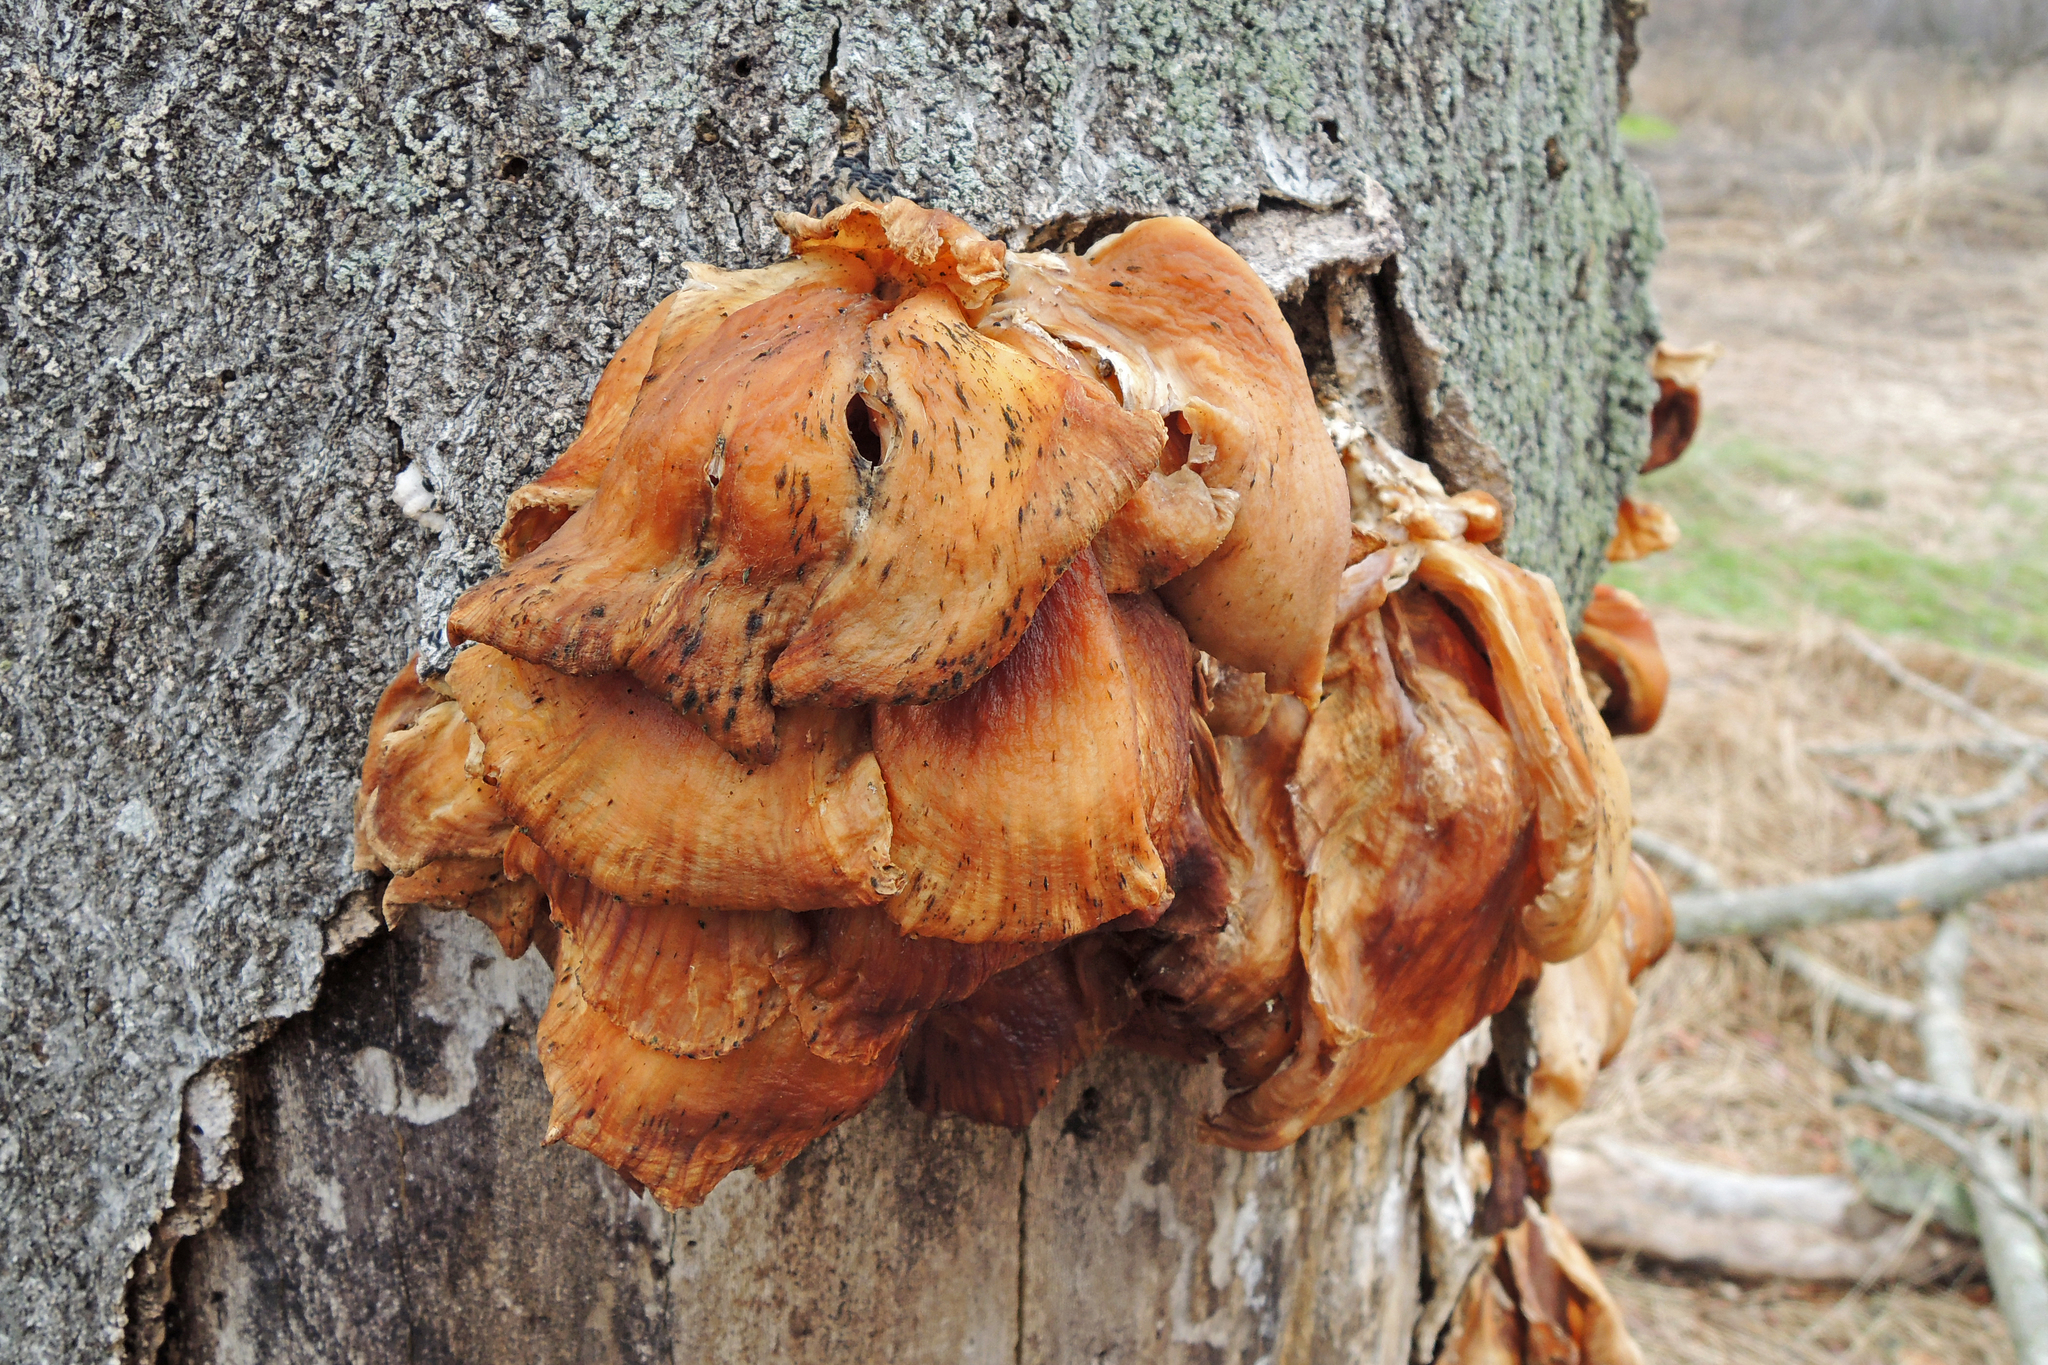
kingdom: Fungi
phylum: Basidiomycota
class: Agaricomycetes
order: Agaricales
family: Pleurotaceae
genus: Pleurotus
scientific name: Pleurotus ostreatus
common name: Oyster mushroom
